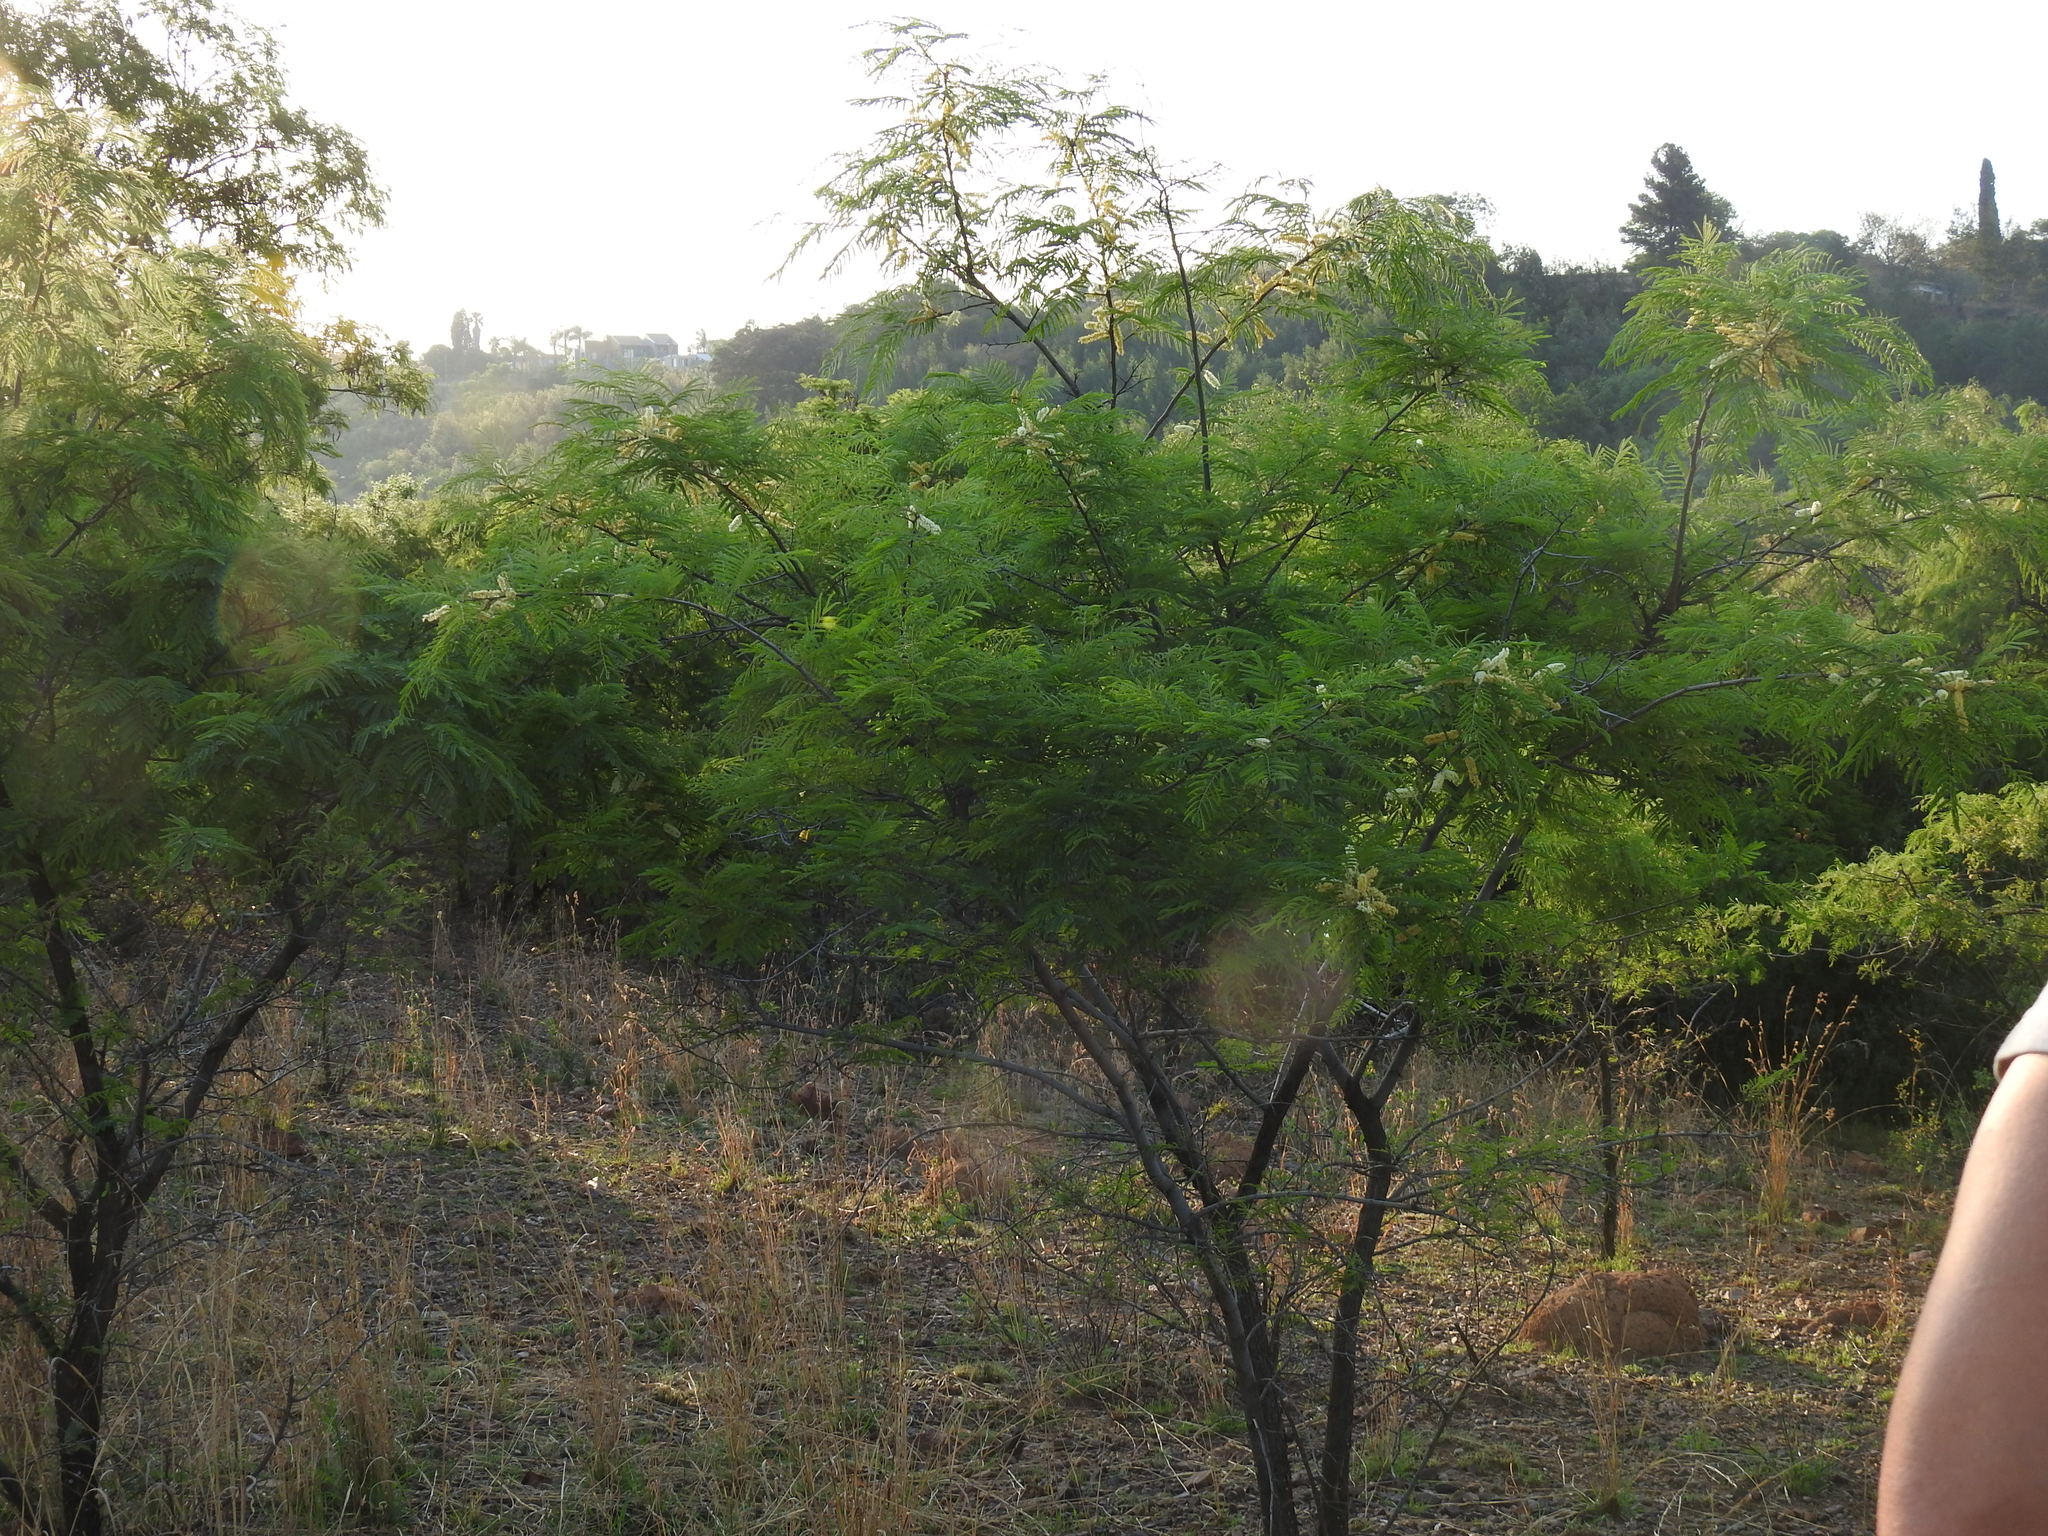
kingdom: Plantae
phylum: Tracheophyta
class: Magnoliopsida
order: Fabales
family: Fabaceae
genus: Senegalia
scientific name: Senegalia caffra
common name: Cat thorn
